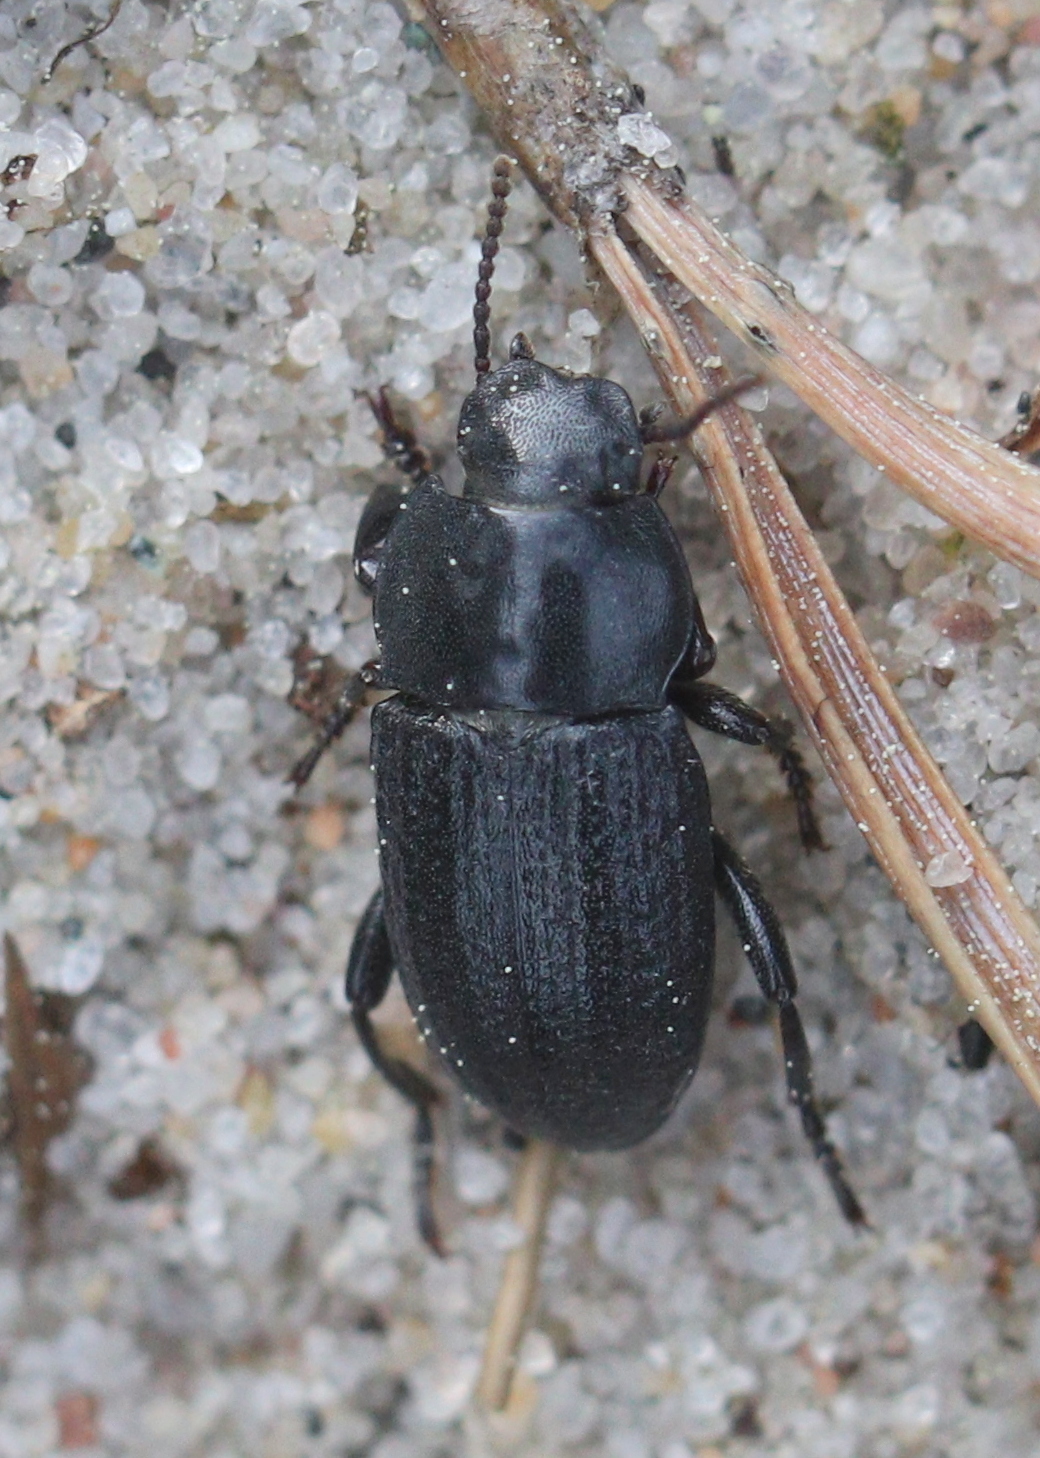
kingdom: Animalia
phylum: Arthropoda
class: Insecta
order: Coleoptera
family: Tenebrionidae
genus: Phylan
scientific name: Phylan gibbus
